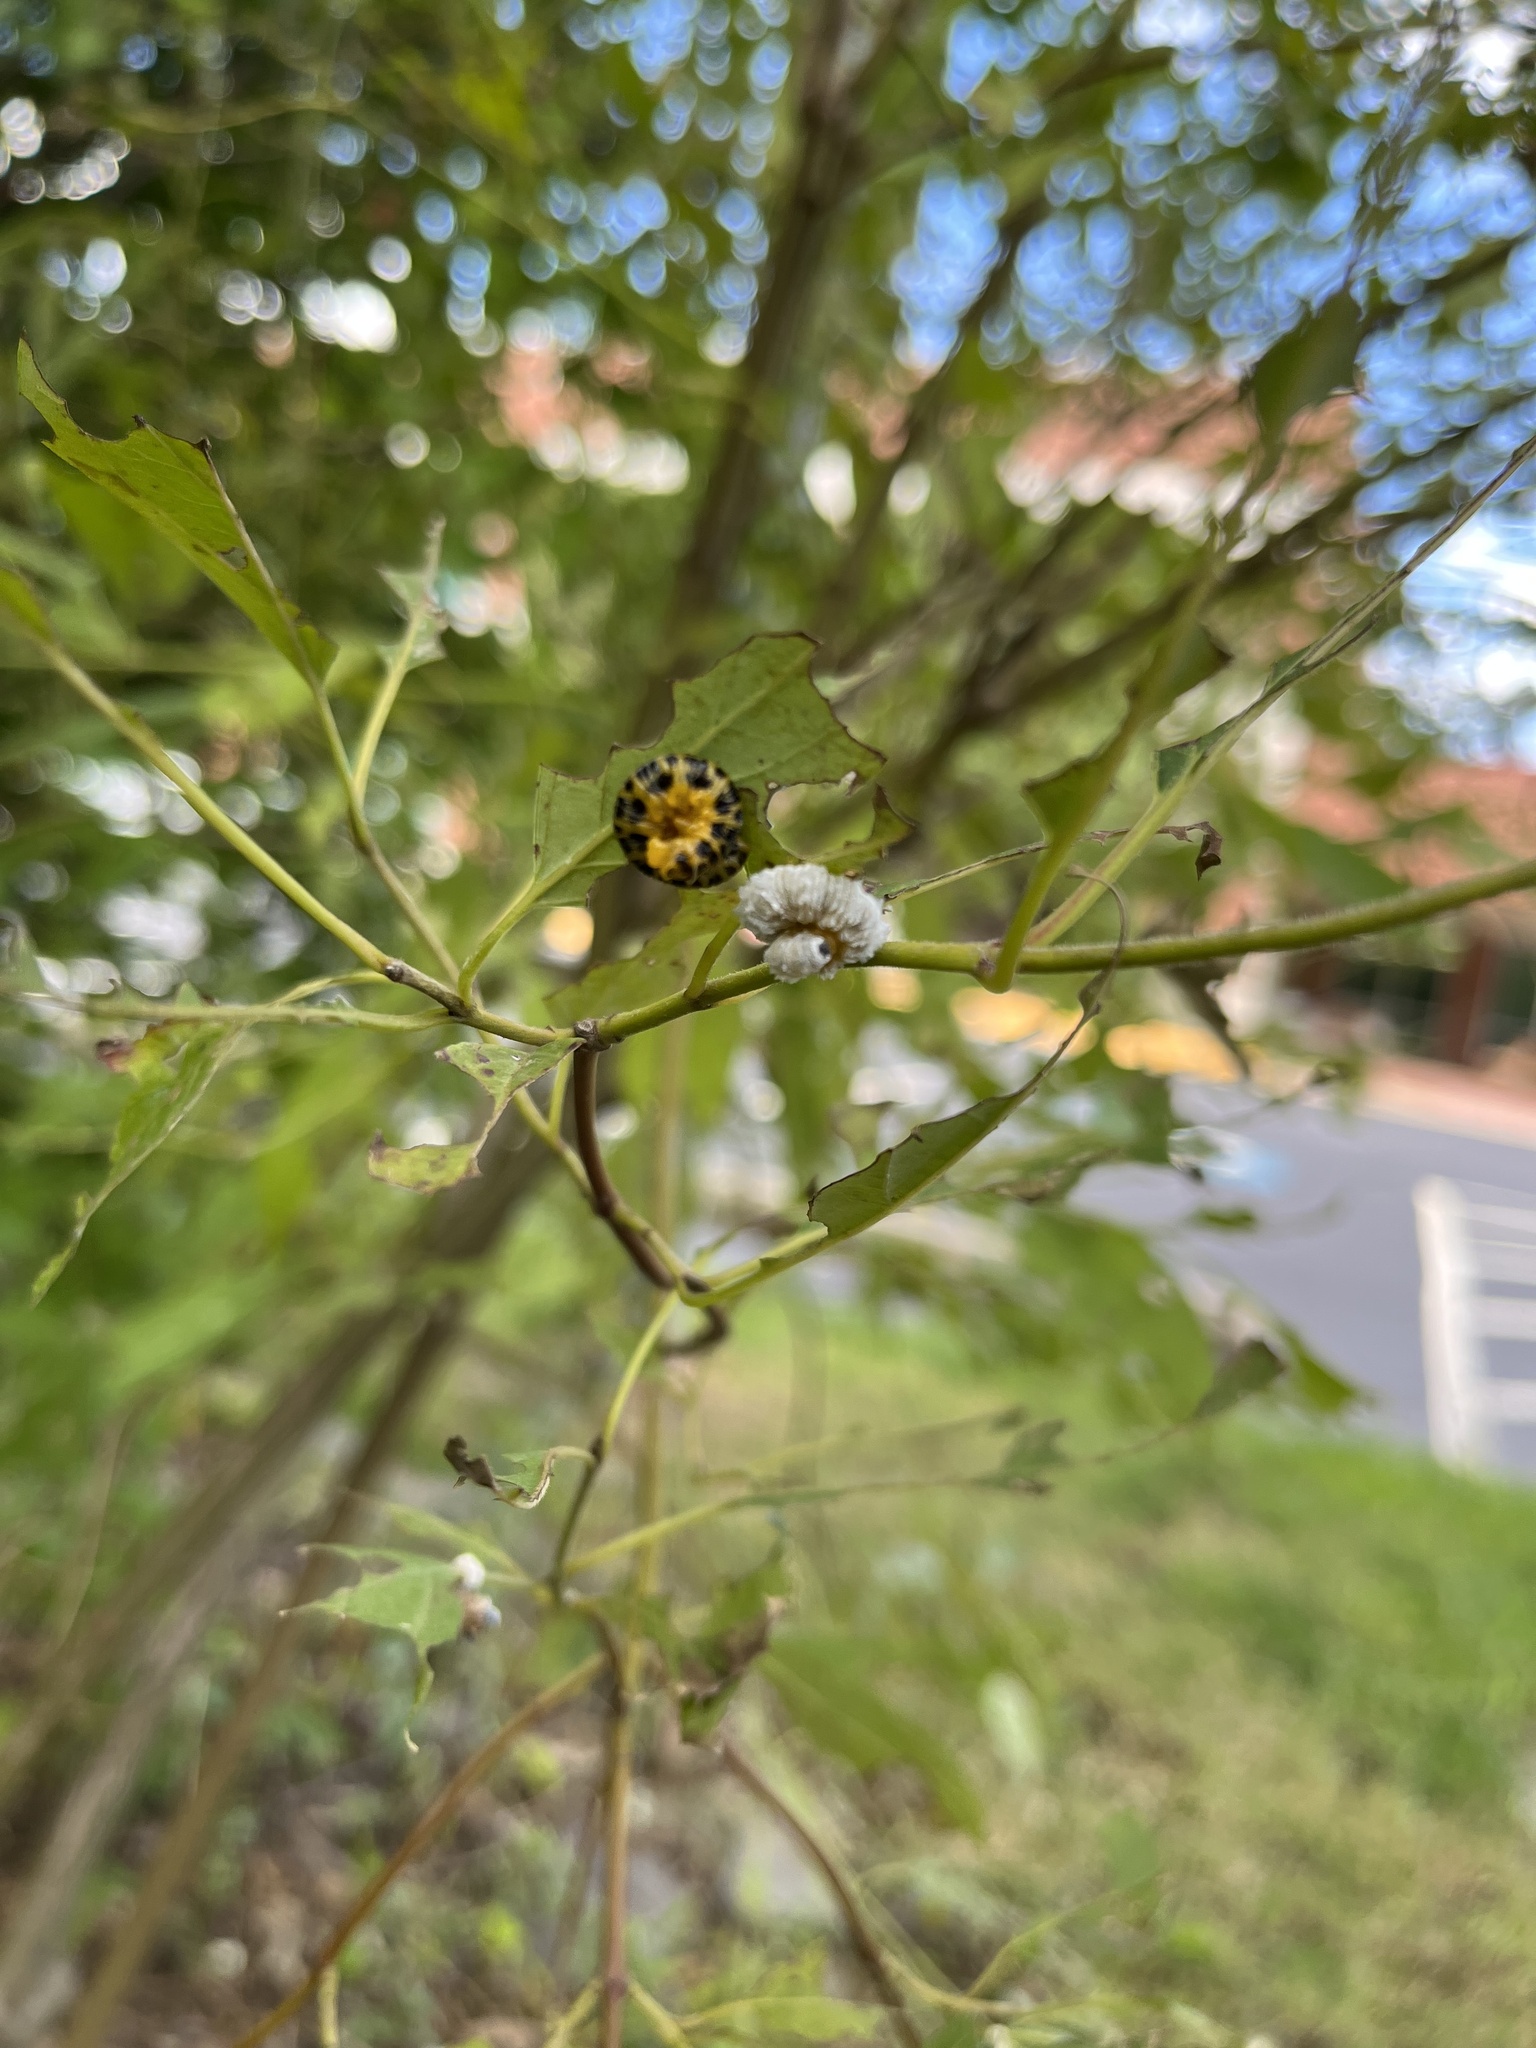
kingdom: Animalia
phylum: Arthropoda
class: Insecta
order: Hymenoptera
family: Tenthredinidae
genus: Macremphytus
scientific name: Macremphytus testaceus
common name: Dogwood sawfly
